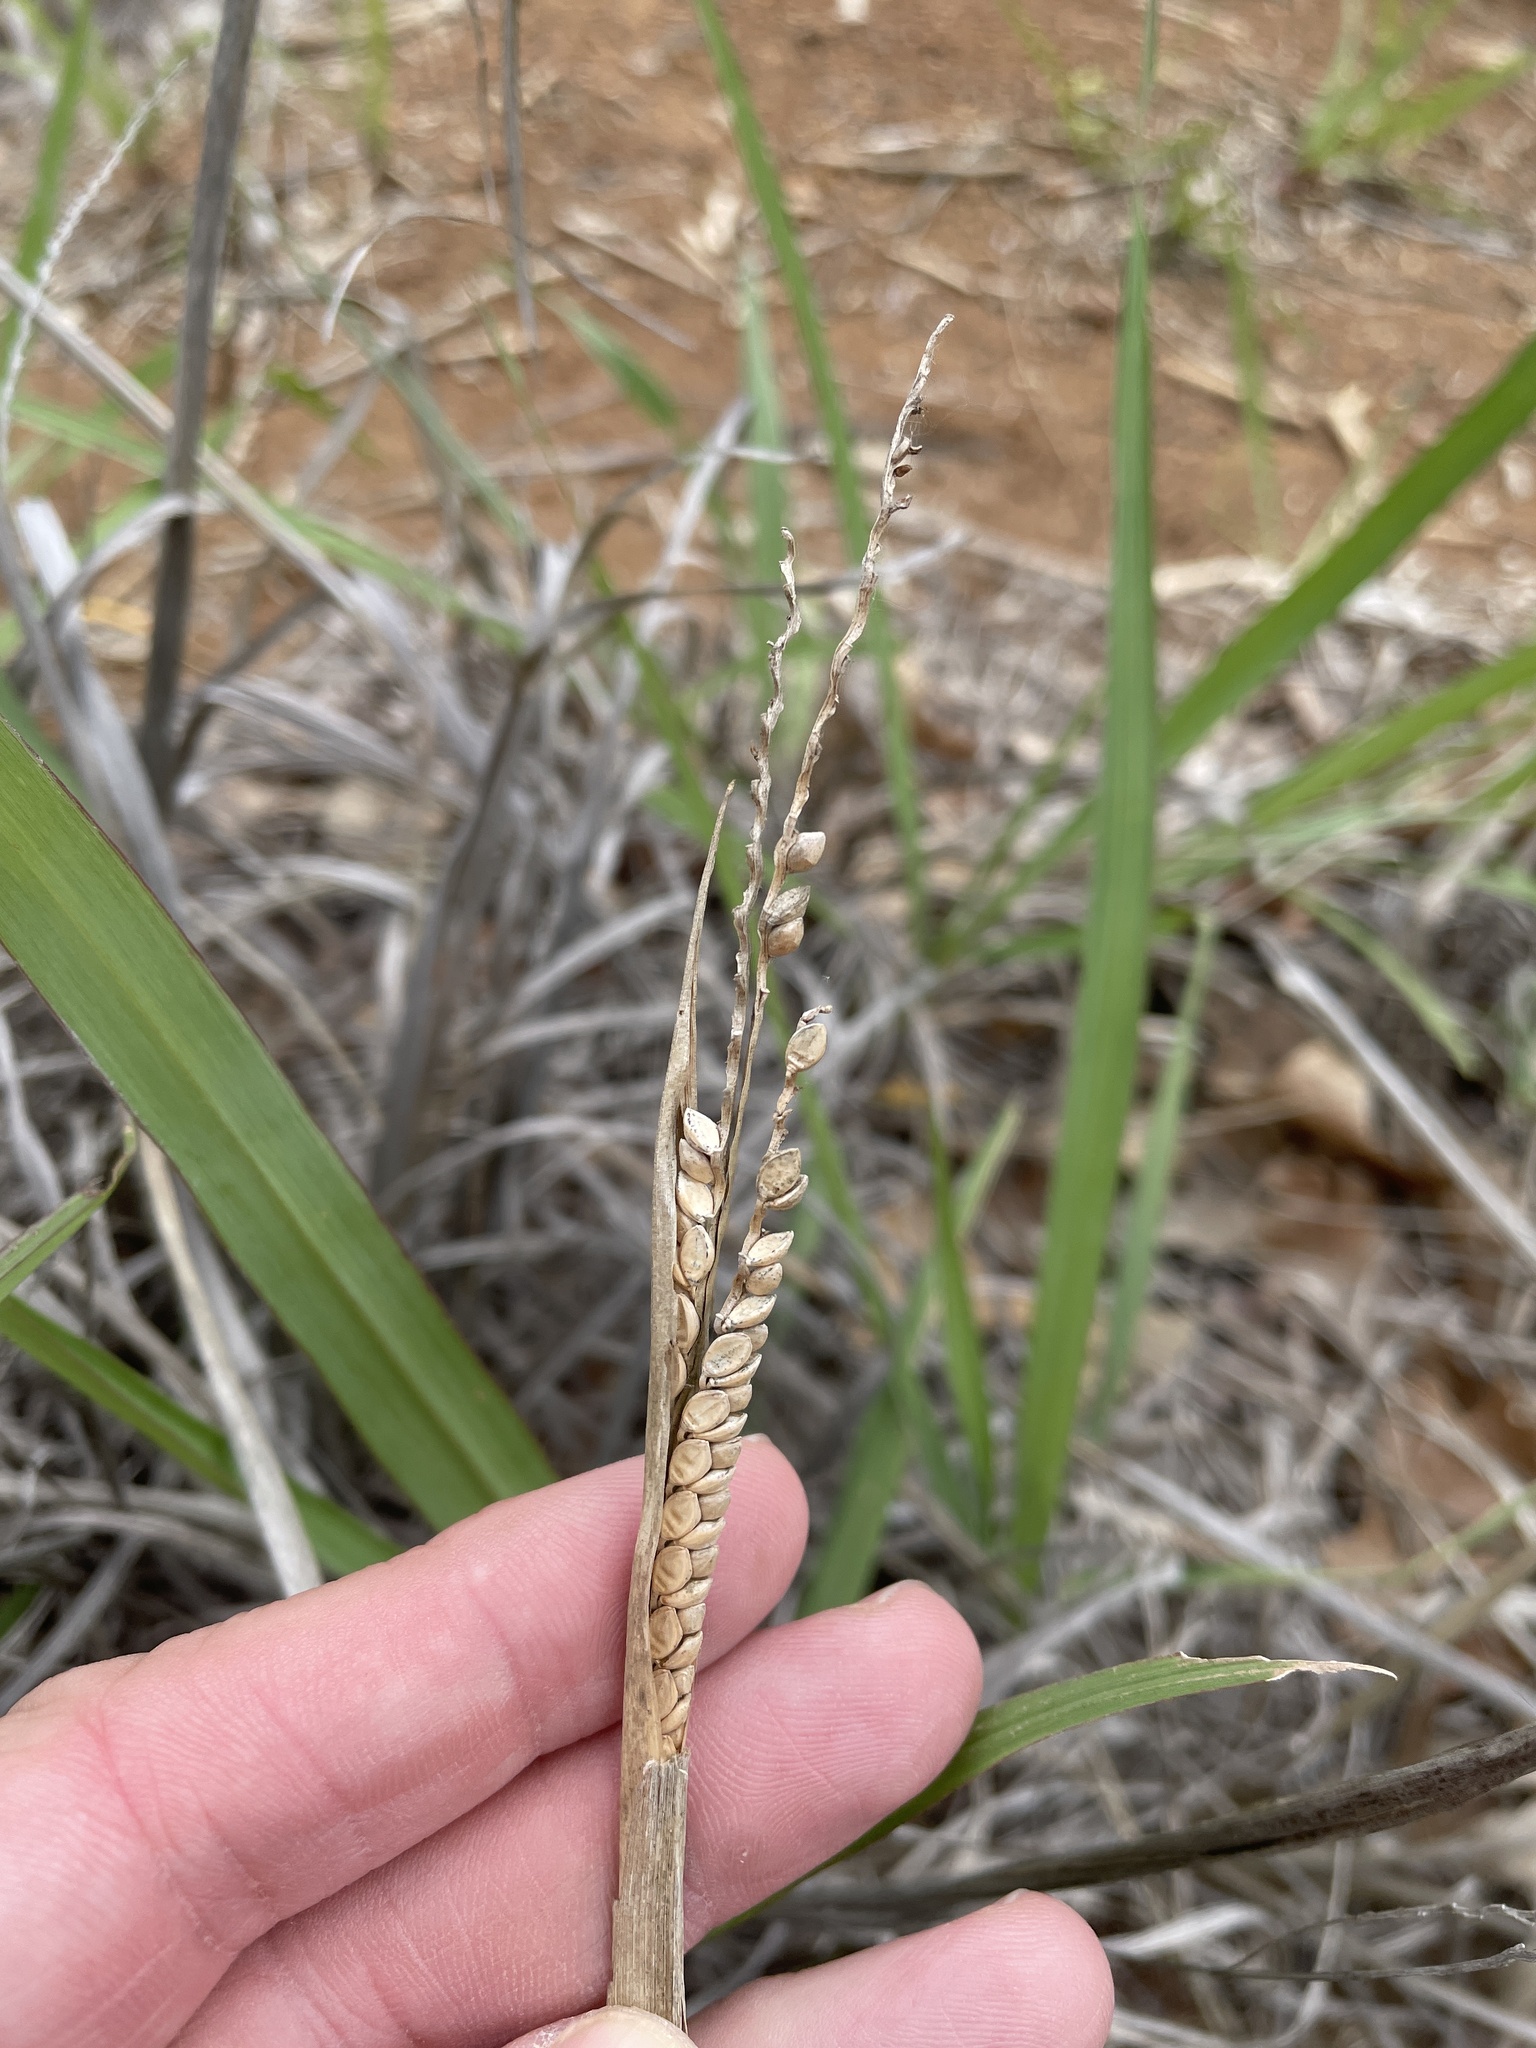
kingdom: Plantae
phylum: Tracheophyta
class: Liliopsida
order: Poales
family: Poaceae
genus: Paspalum
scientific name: Paspalum floridanum
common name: Florida paspalum
